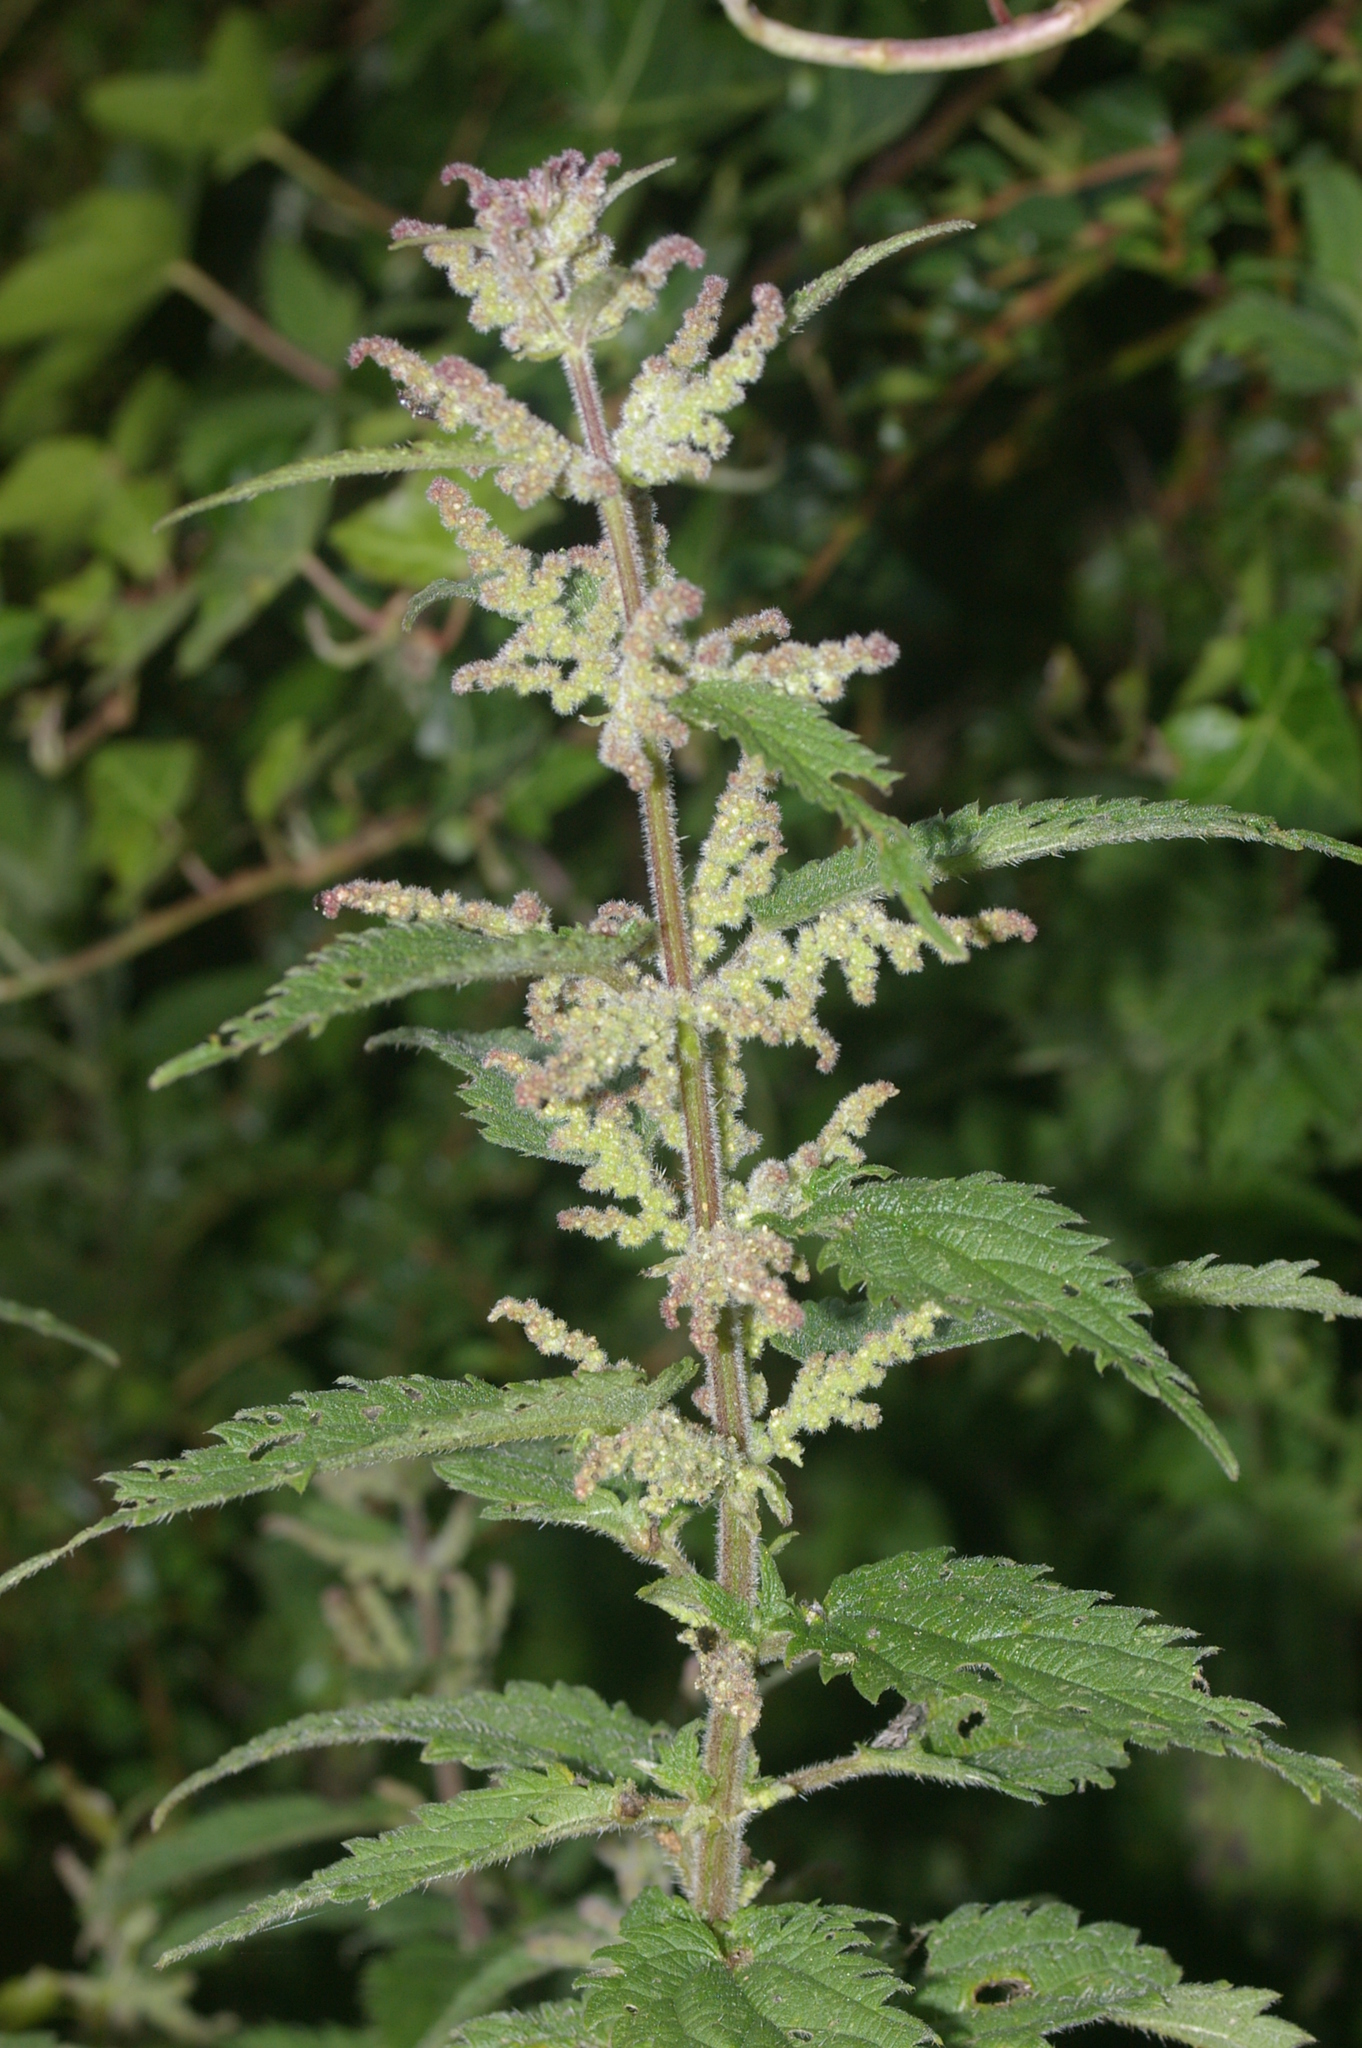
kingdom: Plantae
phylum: Tracheophyta
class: Magnoliopsida
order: Rosales
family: Urticaceae
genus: Urtica
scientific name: Urtica dioica
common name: Common nettle
